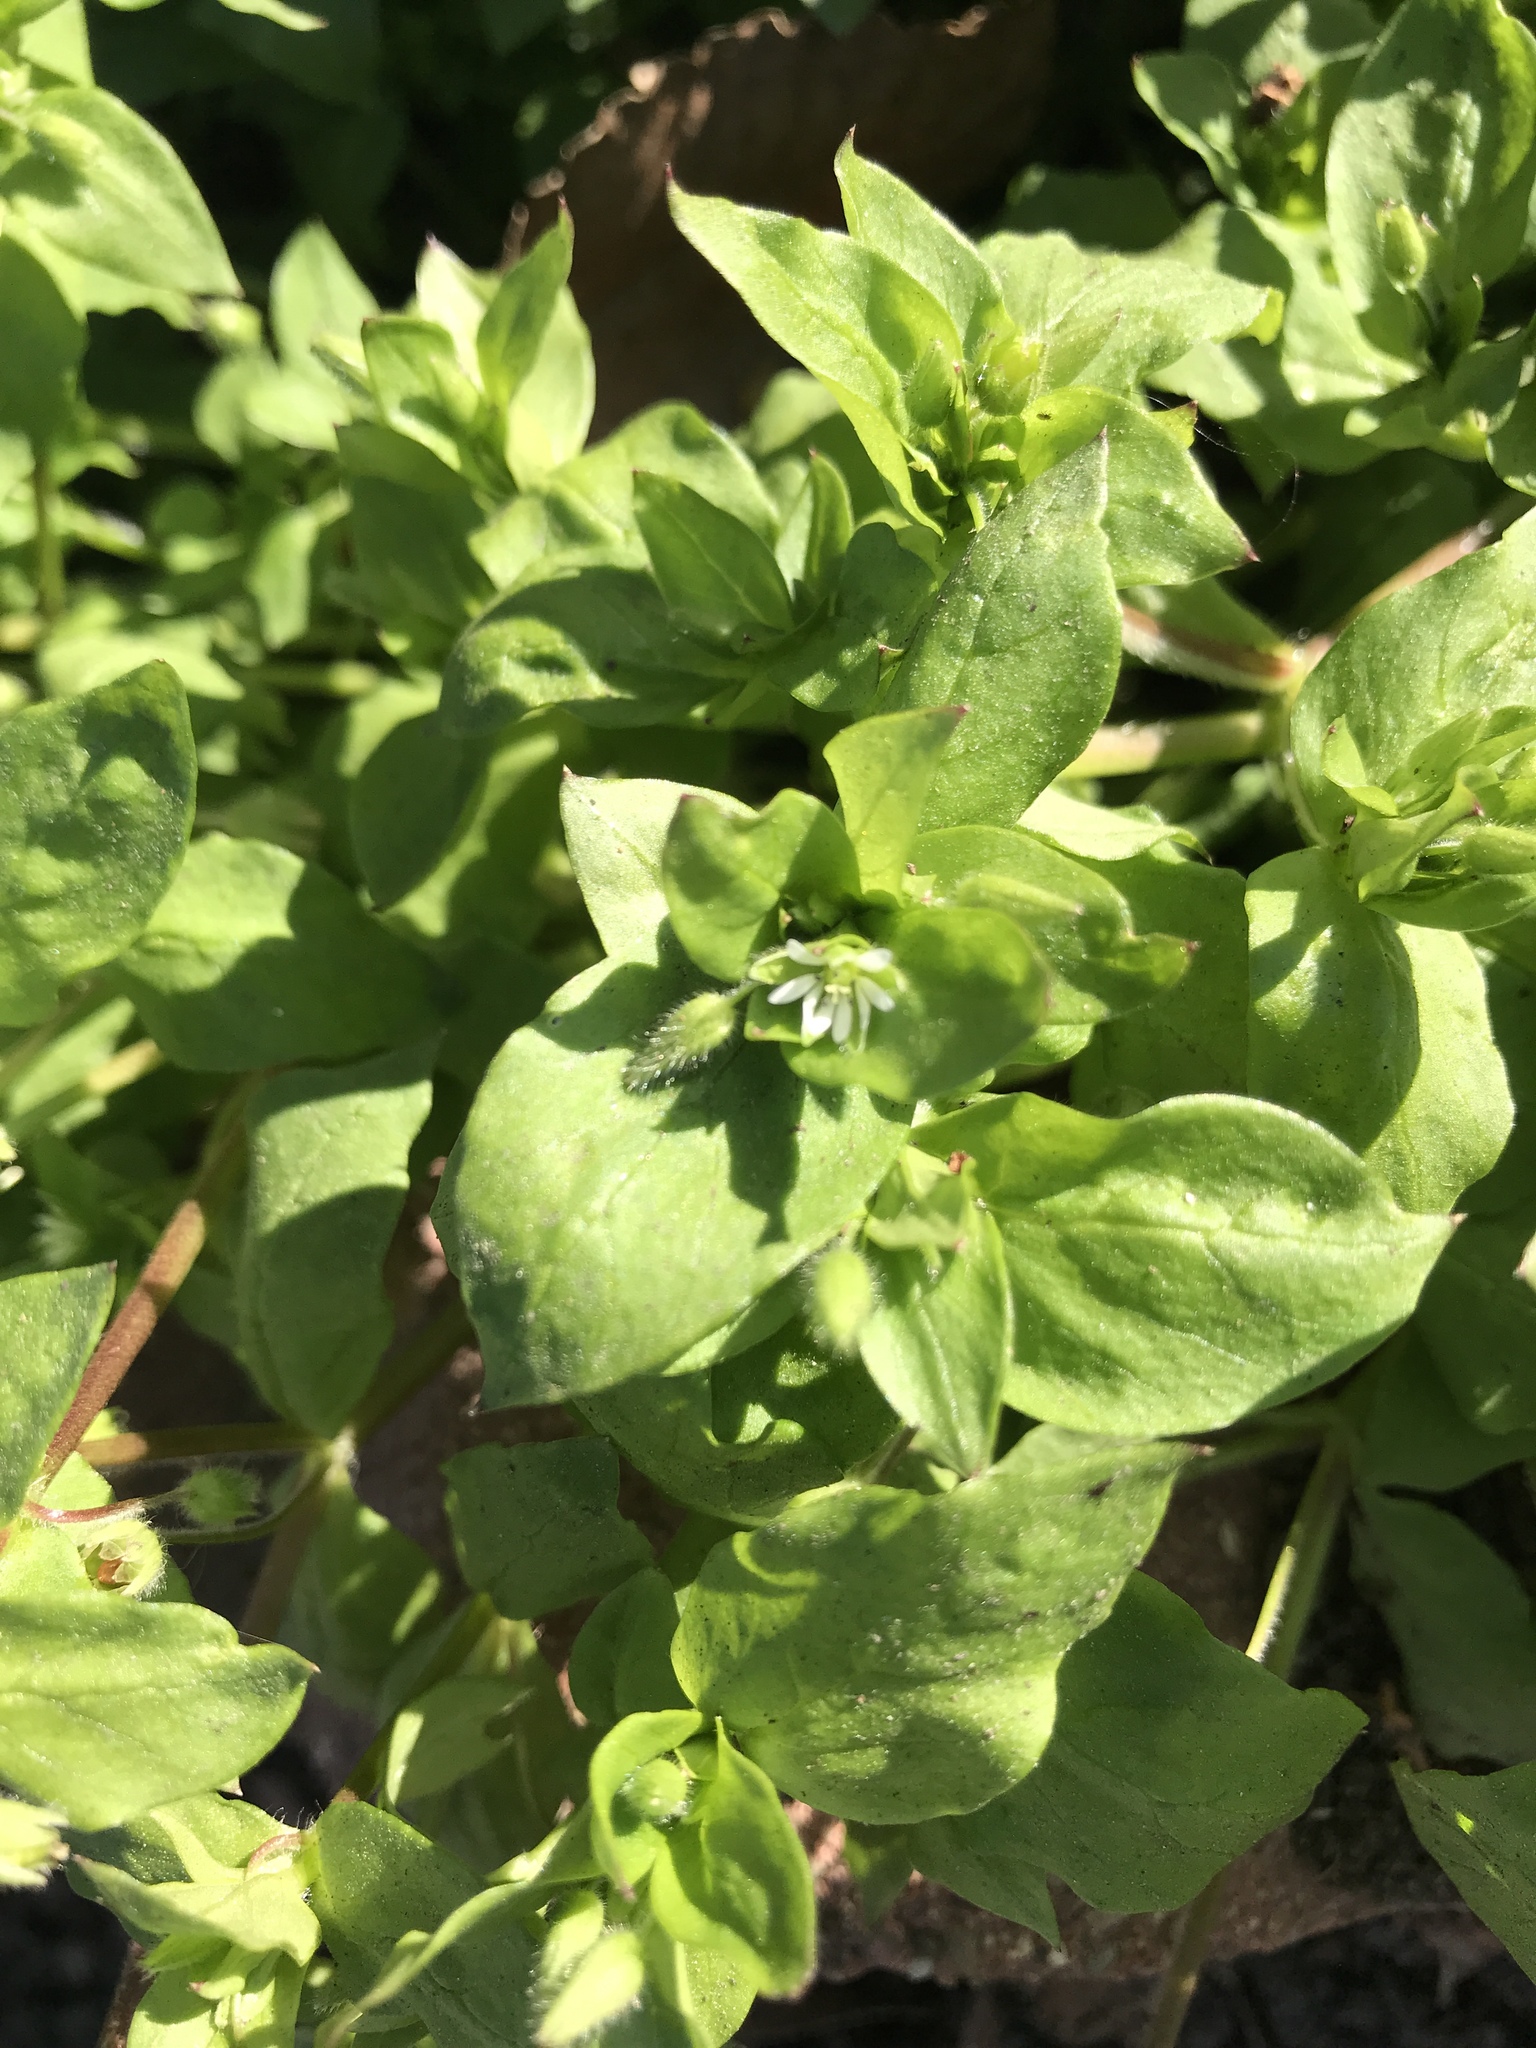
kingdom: Plantae
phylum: Tracheophyta
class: Magnoliopsida
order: Caryophyllales
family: Caryophyllaceae
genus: Stellaria
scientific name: Stellaria media
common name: Common chickweed
